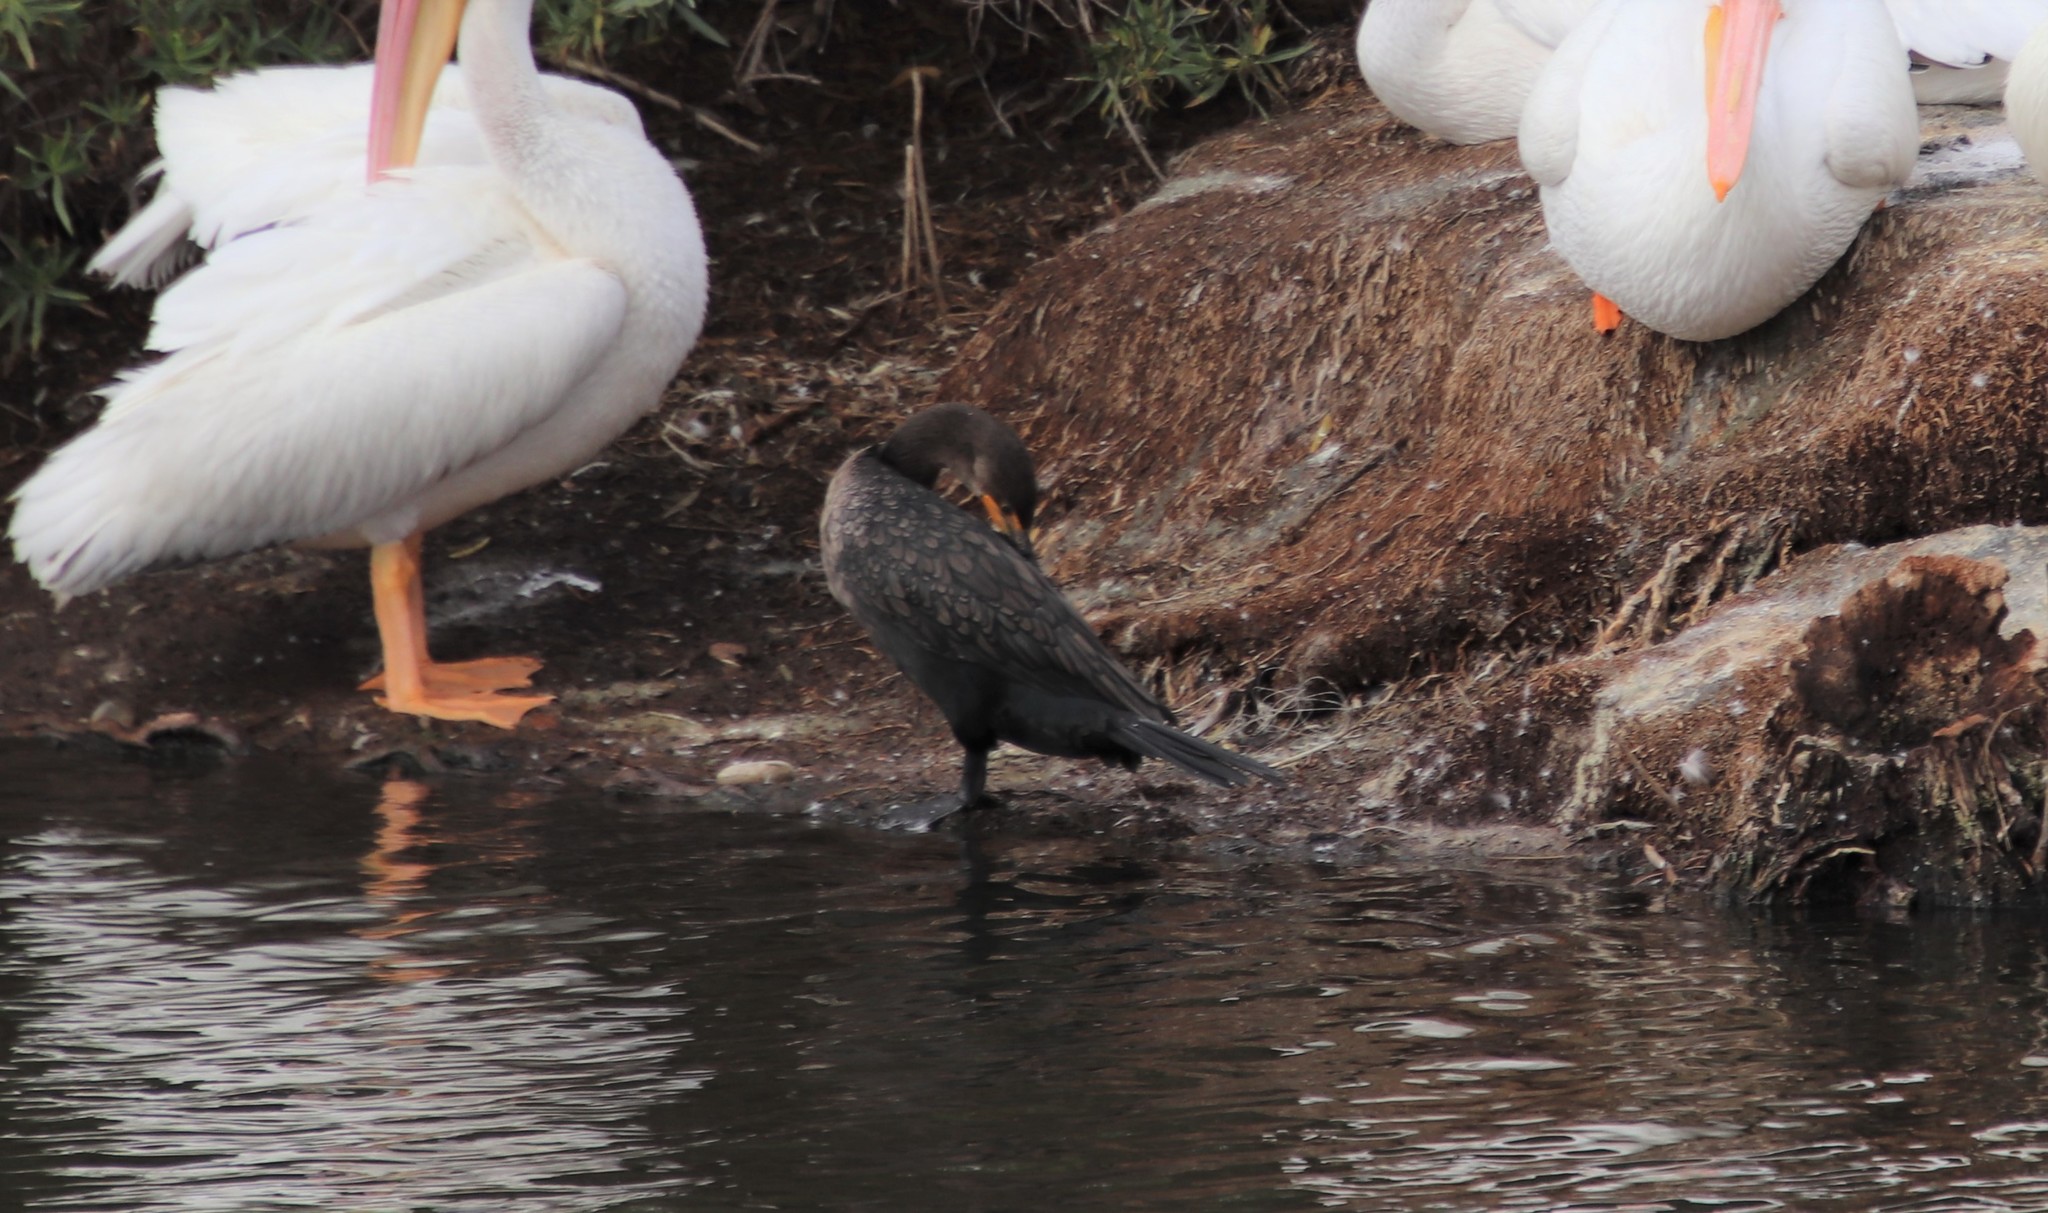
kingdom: Animalia
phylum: Chordata
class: Aves
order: Suliformes
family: Phalacrocoracidae
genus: Phalacrocorax
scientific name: Phalacrocorax auritus
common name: Double-crested cormorant
